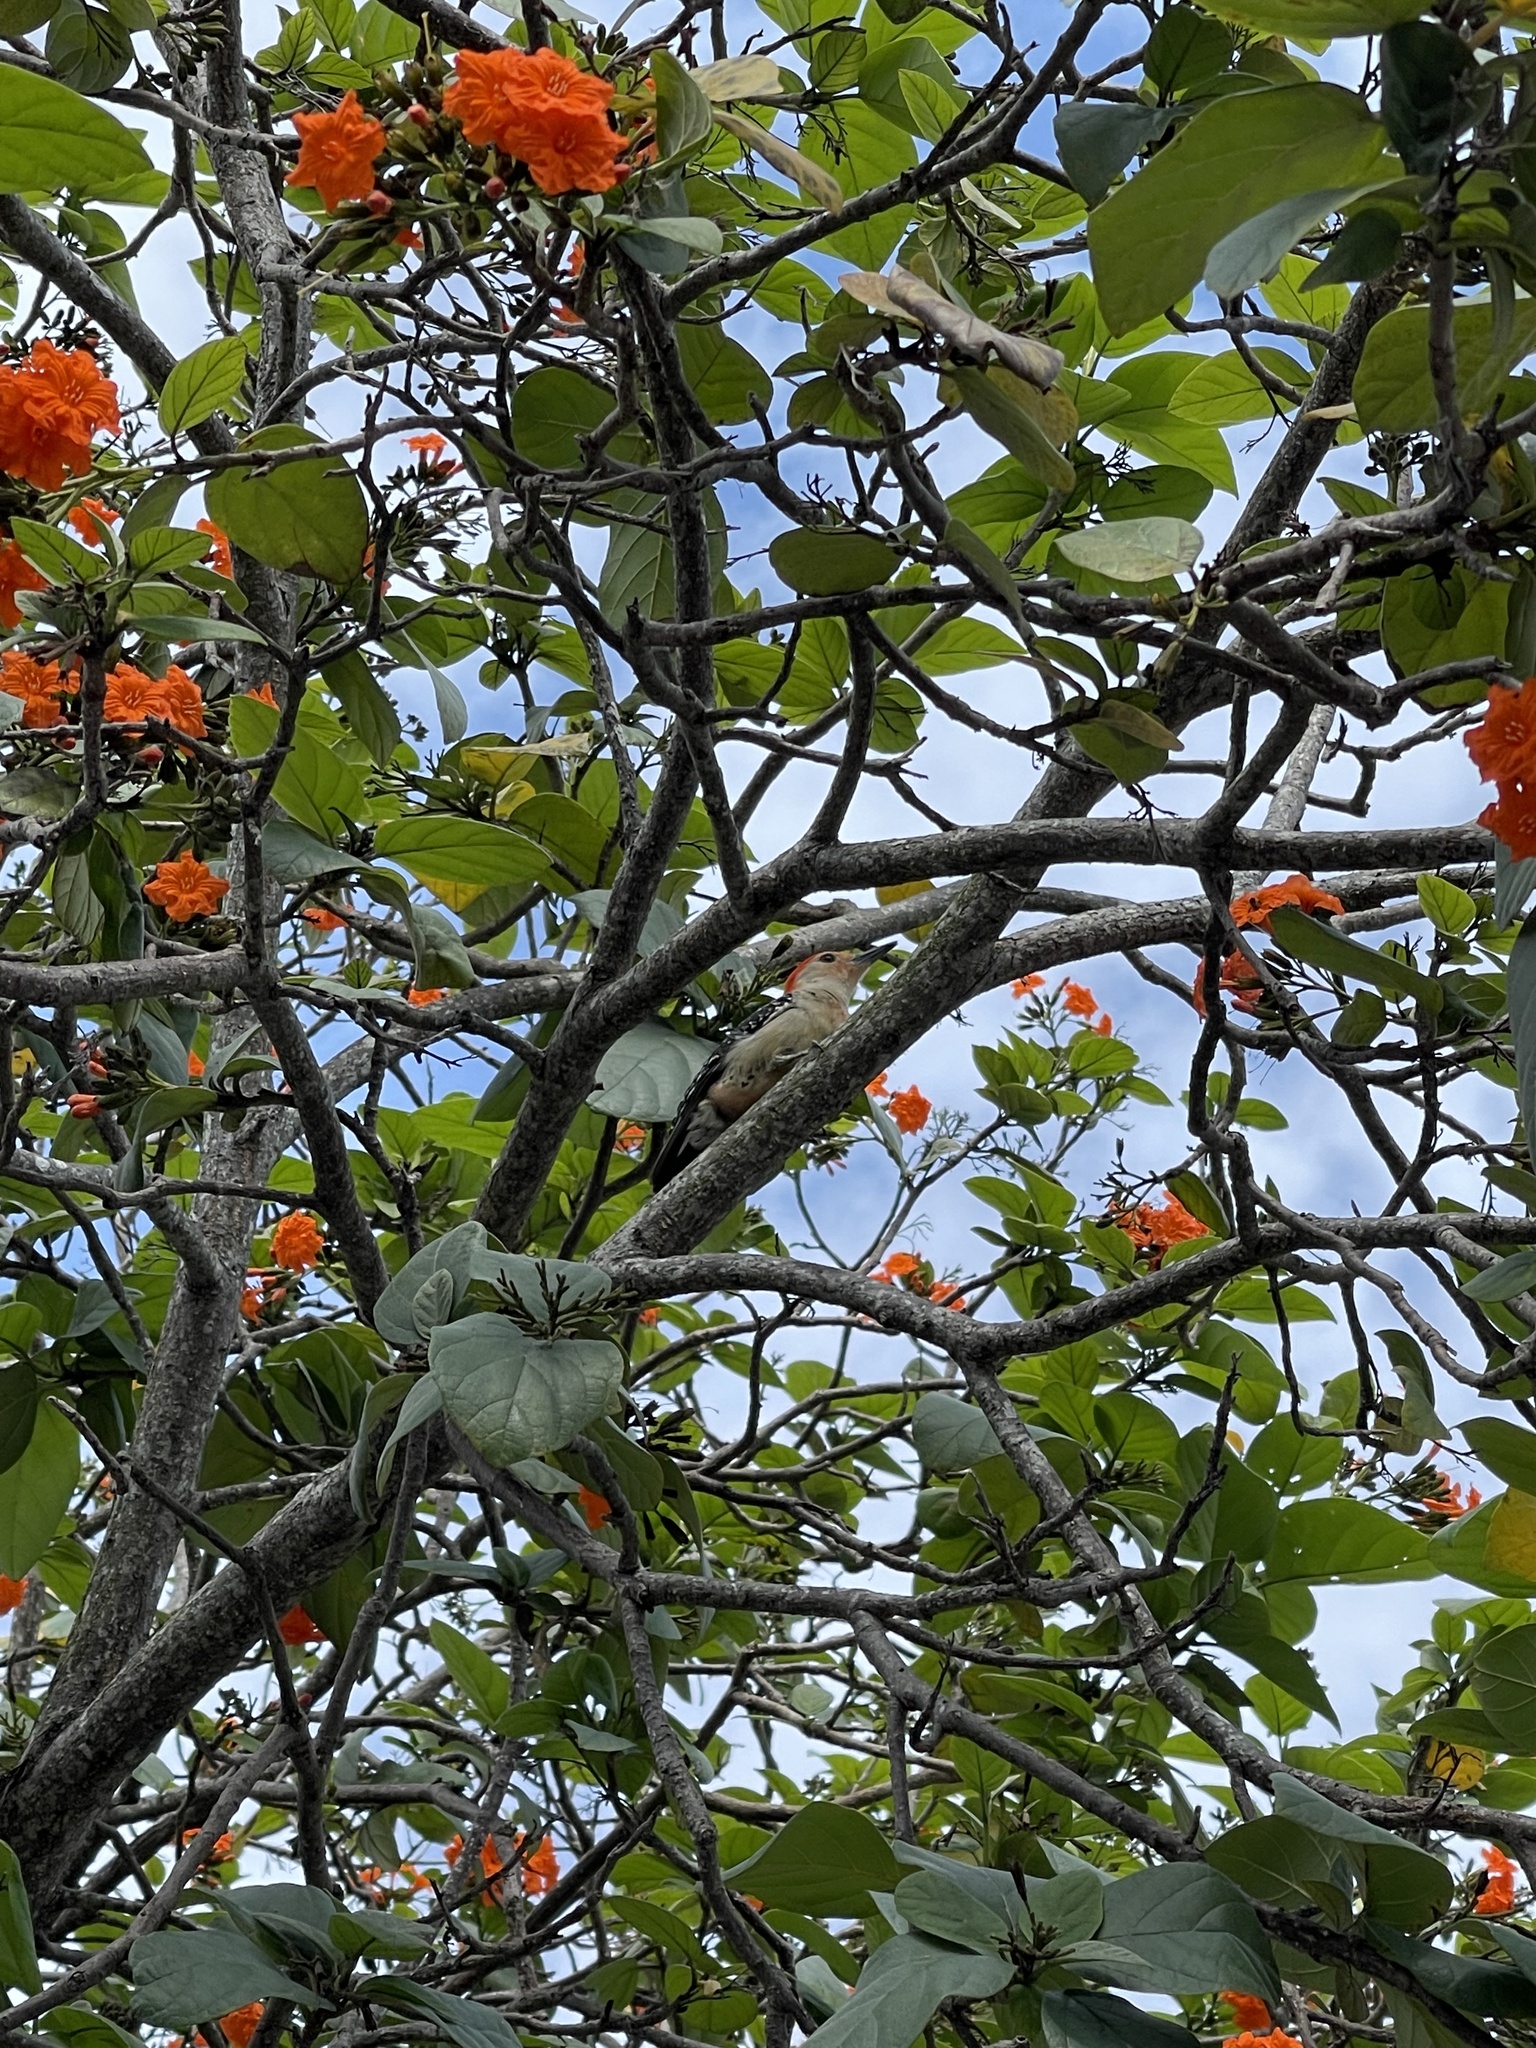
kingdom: Animalia
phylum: Chordata
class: Aves
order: Piciformes
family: Picidae
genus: Melanerpes
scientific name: Melanerpes carolinus
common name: Red-bellied woodpecker
